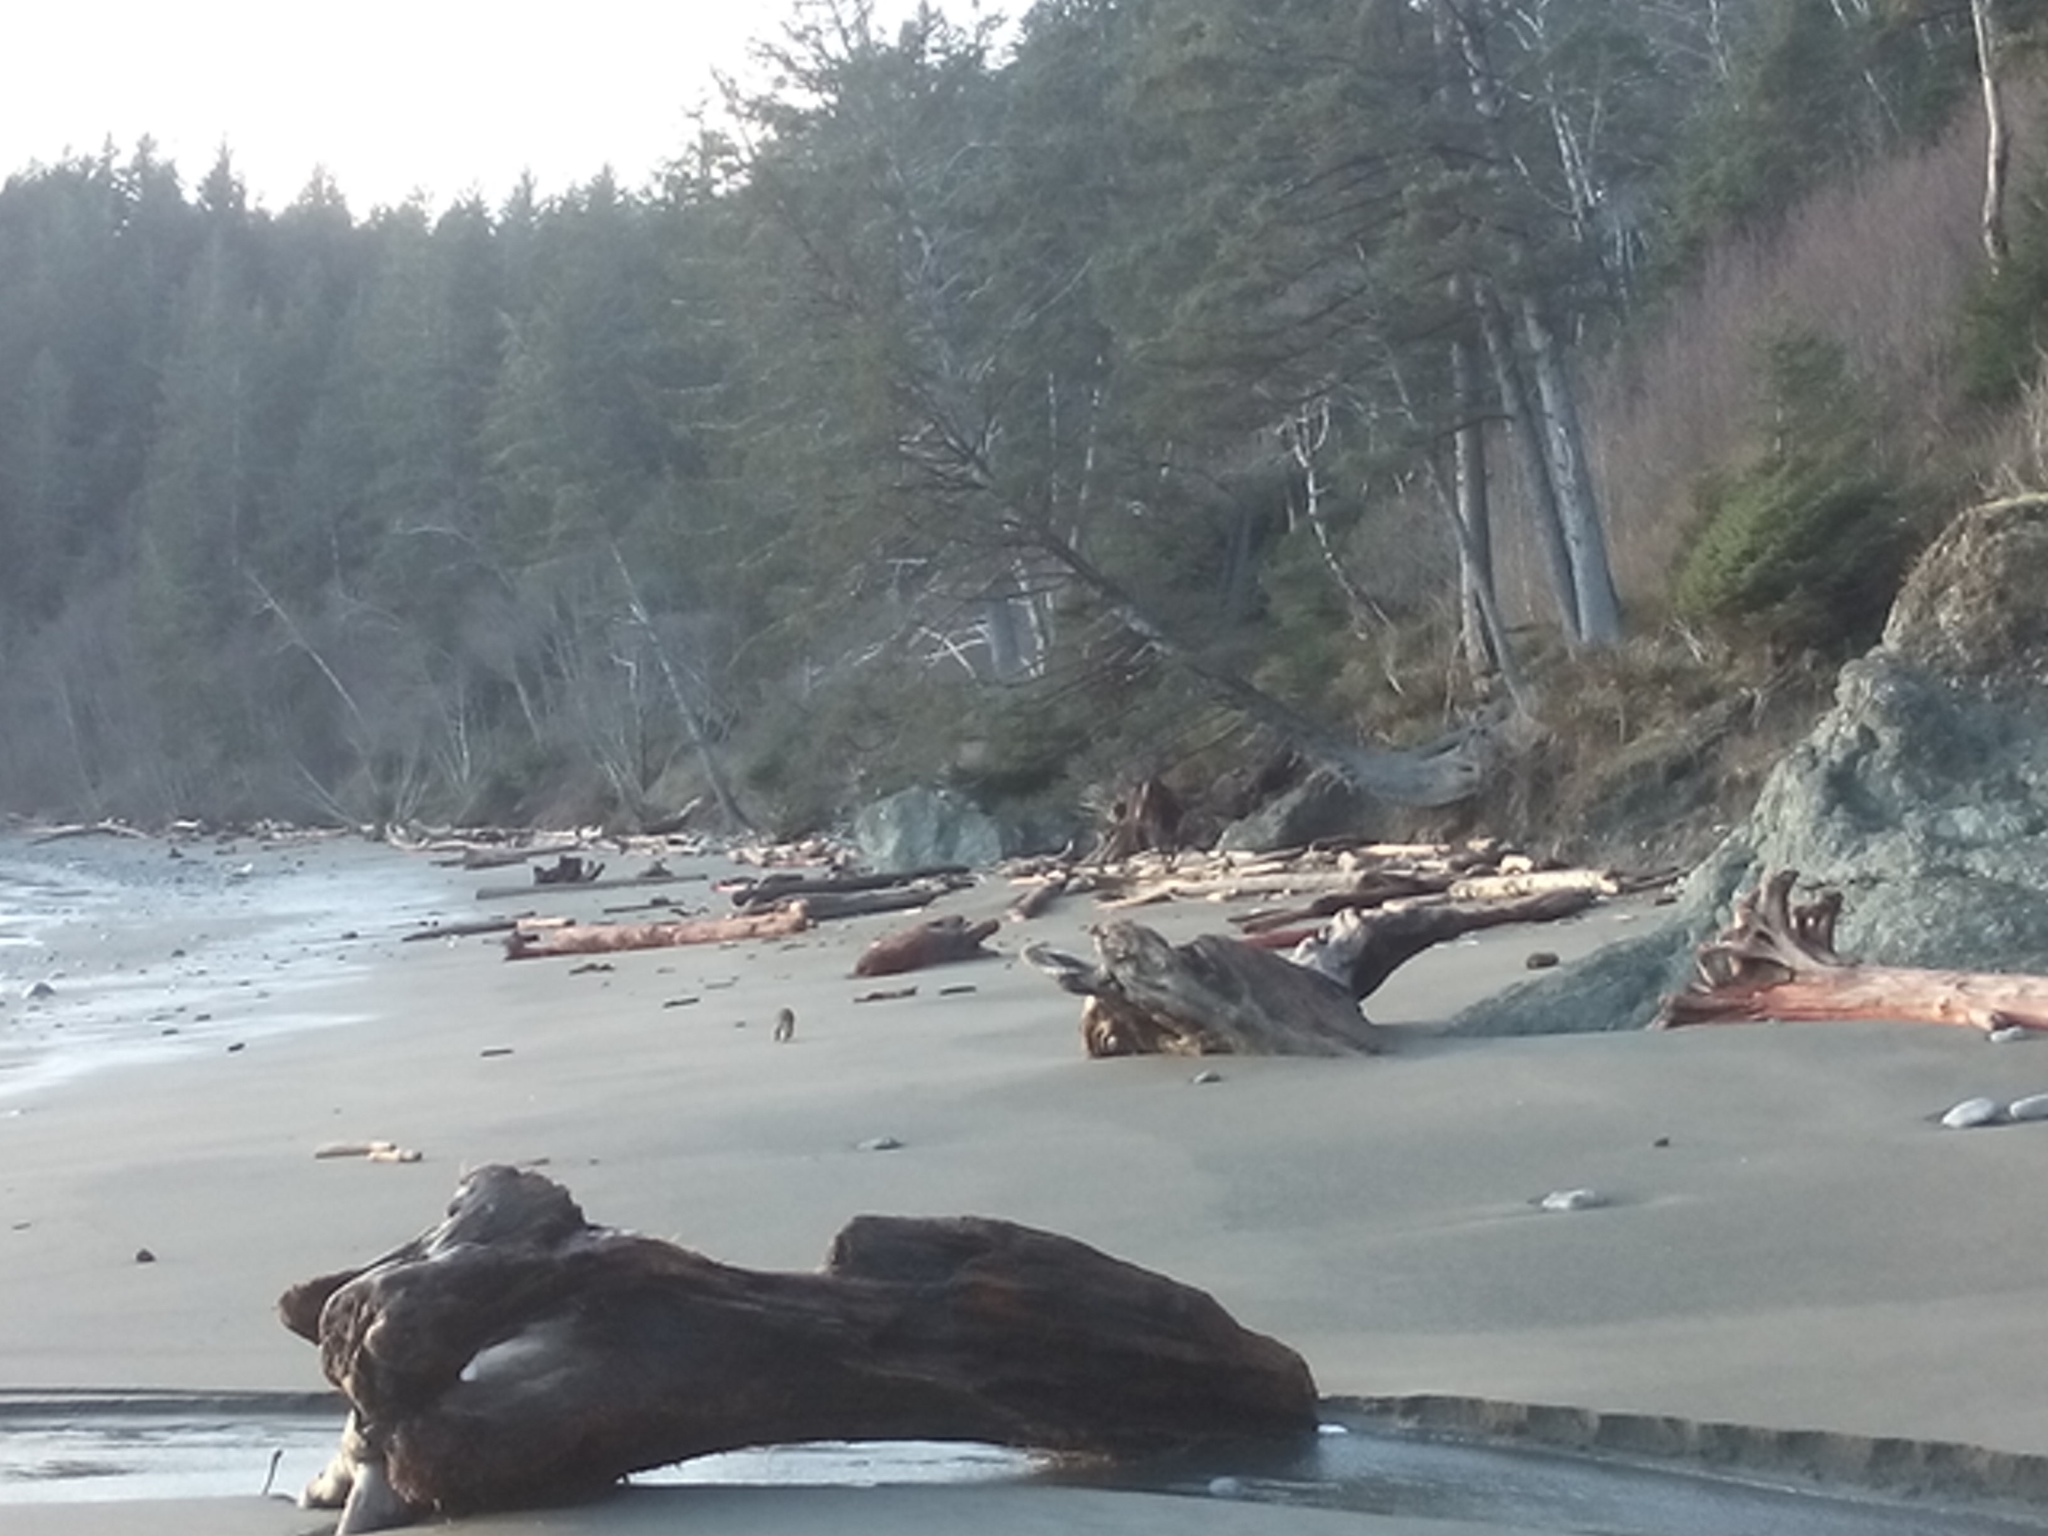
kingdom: Animalia
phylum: Chordata
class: Mammalia
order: Carnivora
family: Procyonidae
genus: Procyon
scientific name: Procyon lotor
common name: Raccoon
